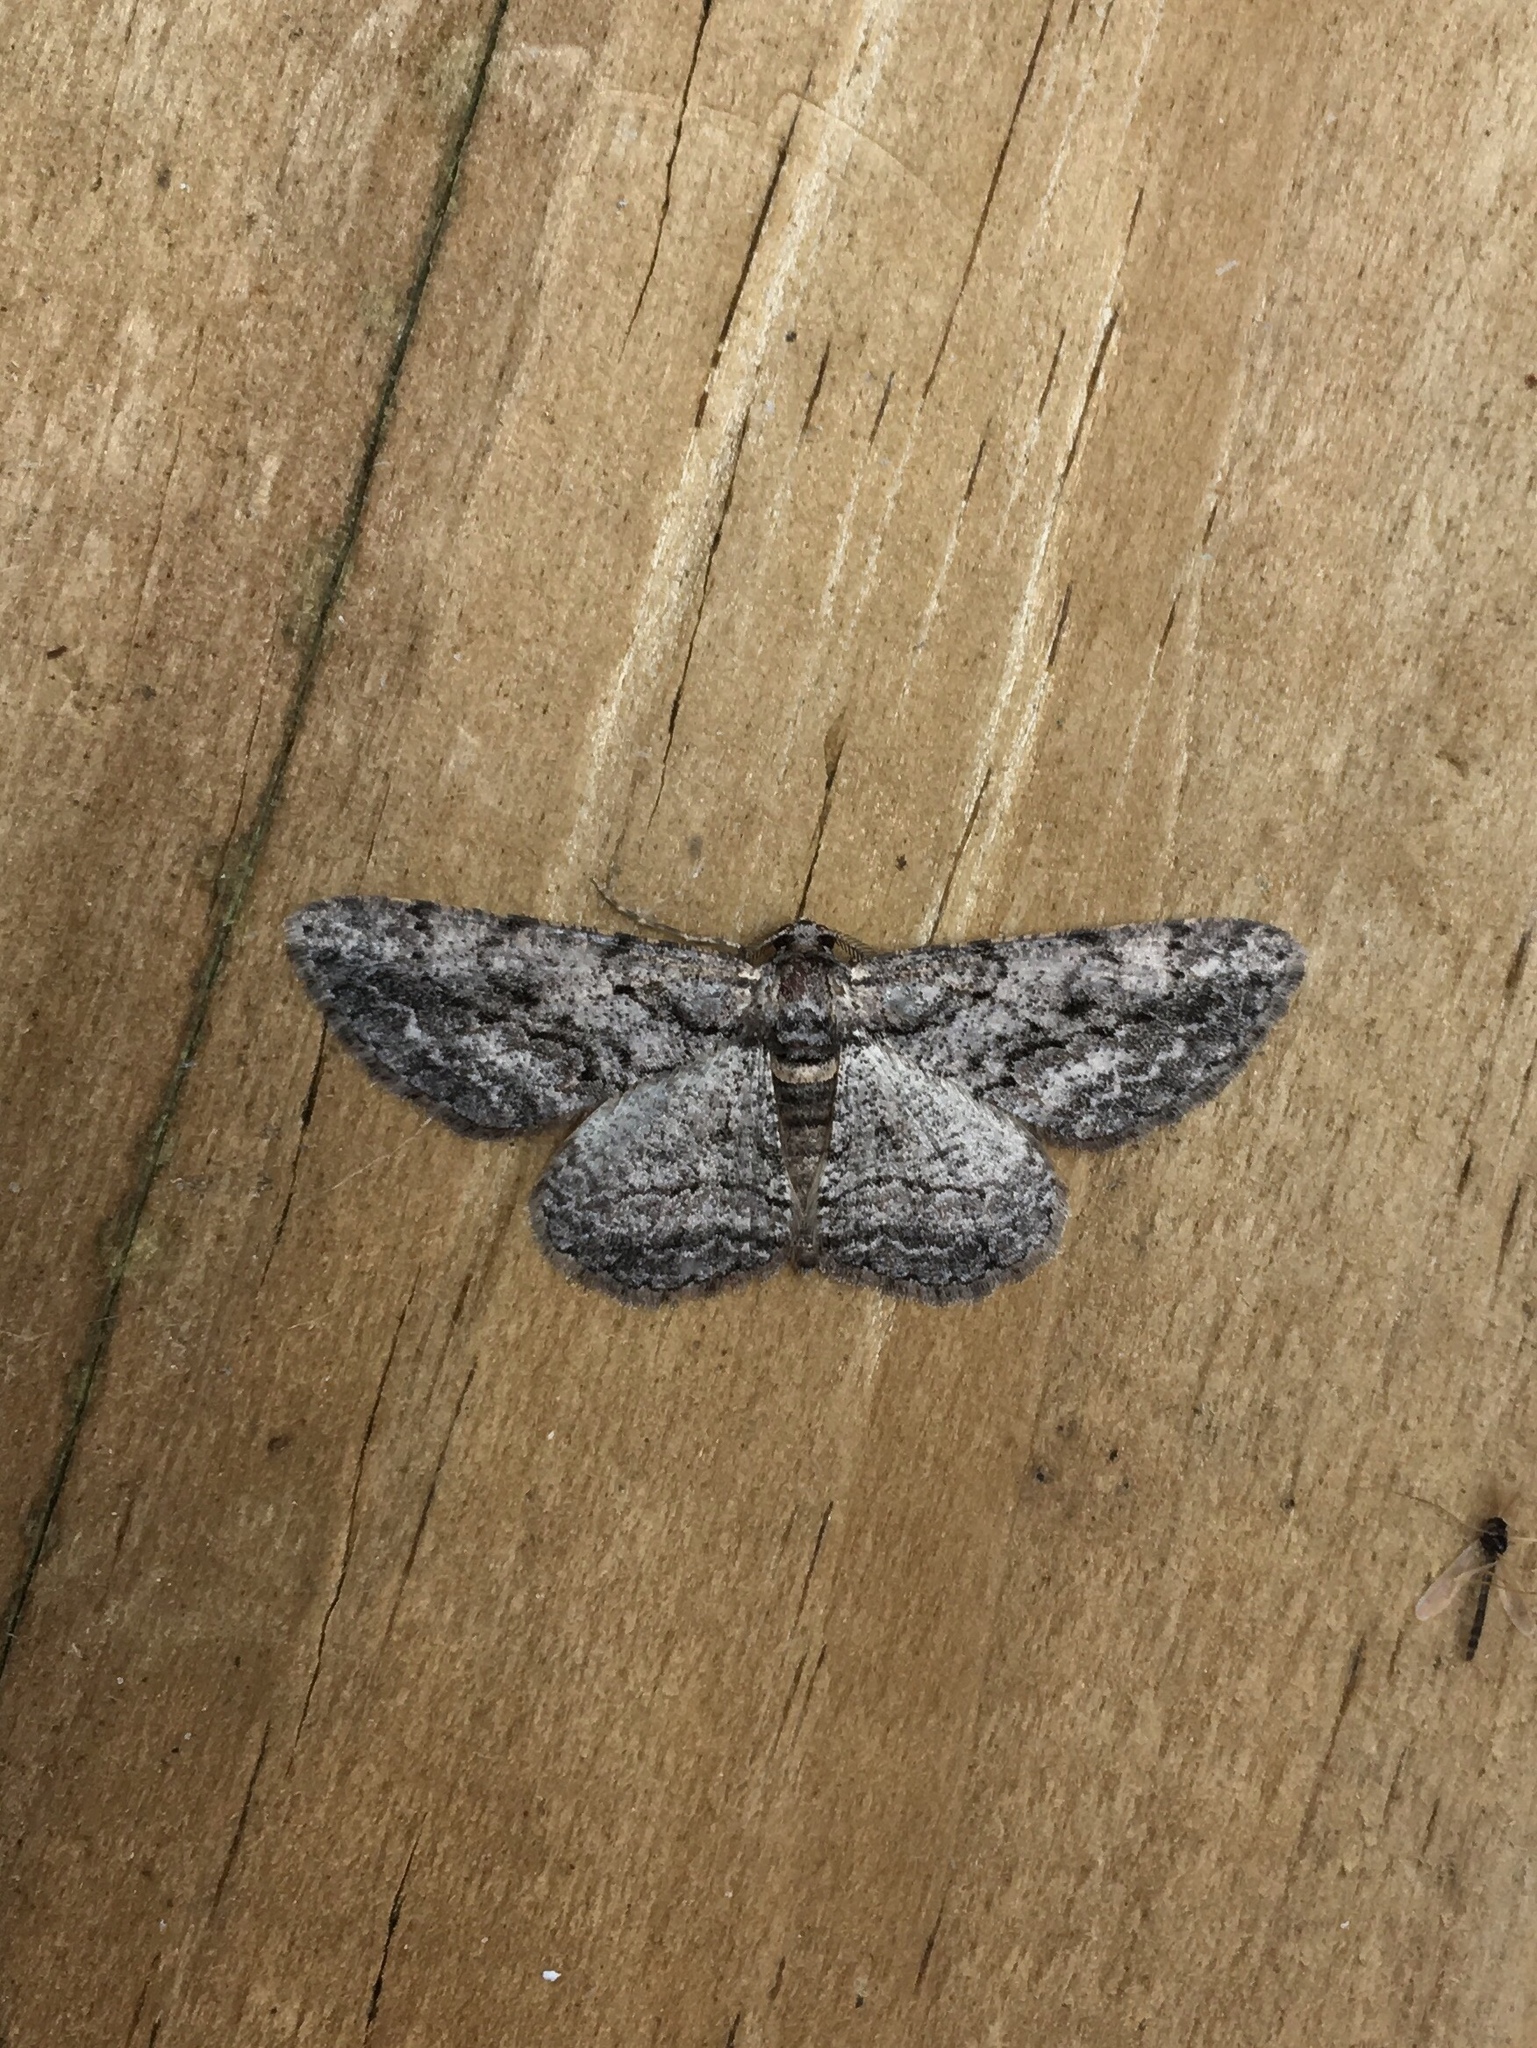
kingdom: Animalia
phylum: Arthropoda
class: Insecta
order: Lepidoptera
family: Geometridae
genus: Anavitrinella
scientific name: Anavitrinella pampinaria
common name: Common gray
